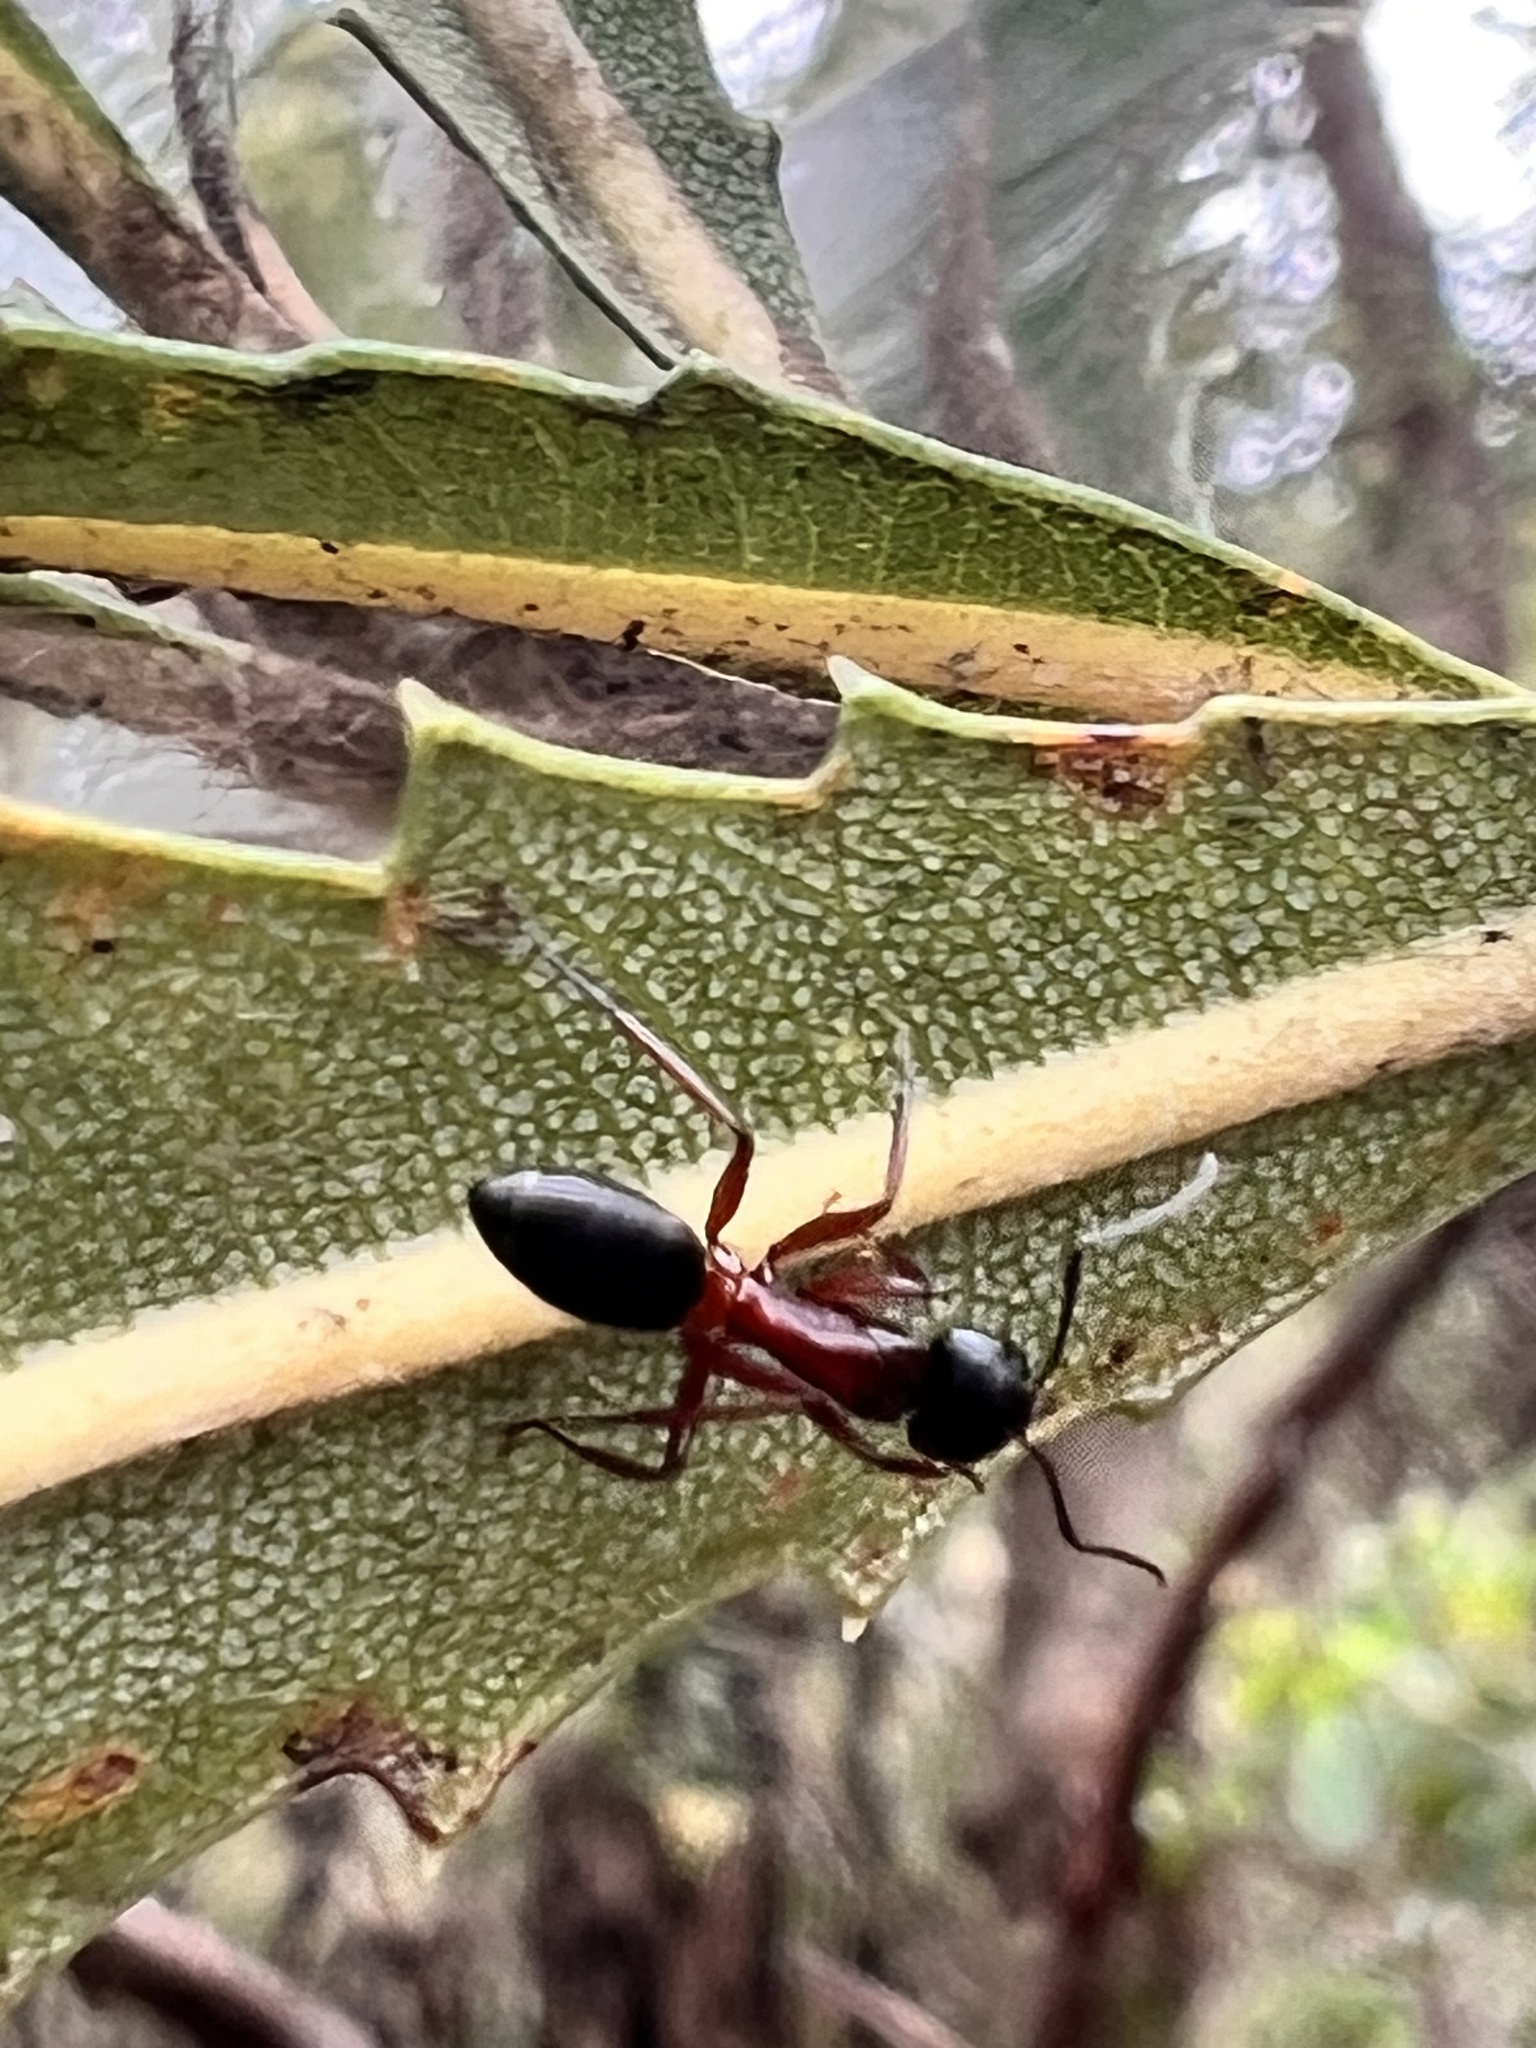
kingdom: Animalia
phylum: Arthropoda
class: Insecta
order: Hymenoptera
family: Formicidae
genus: Camponotus
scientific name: Camponotus innexus
